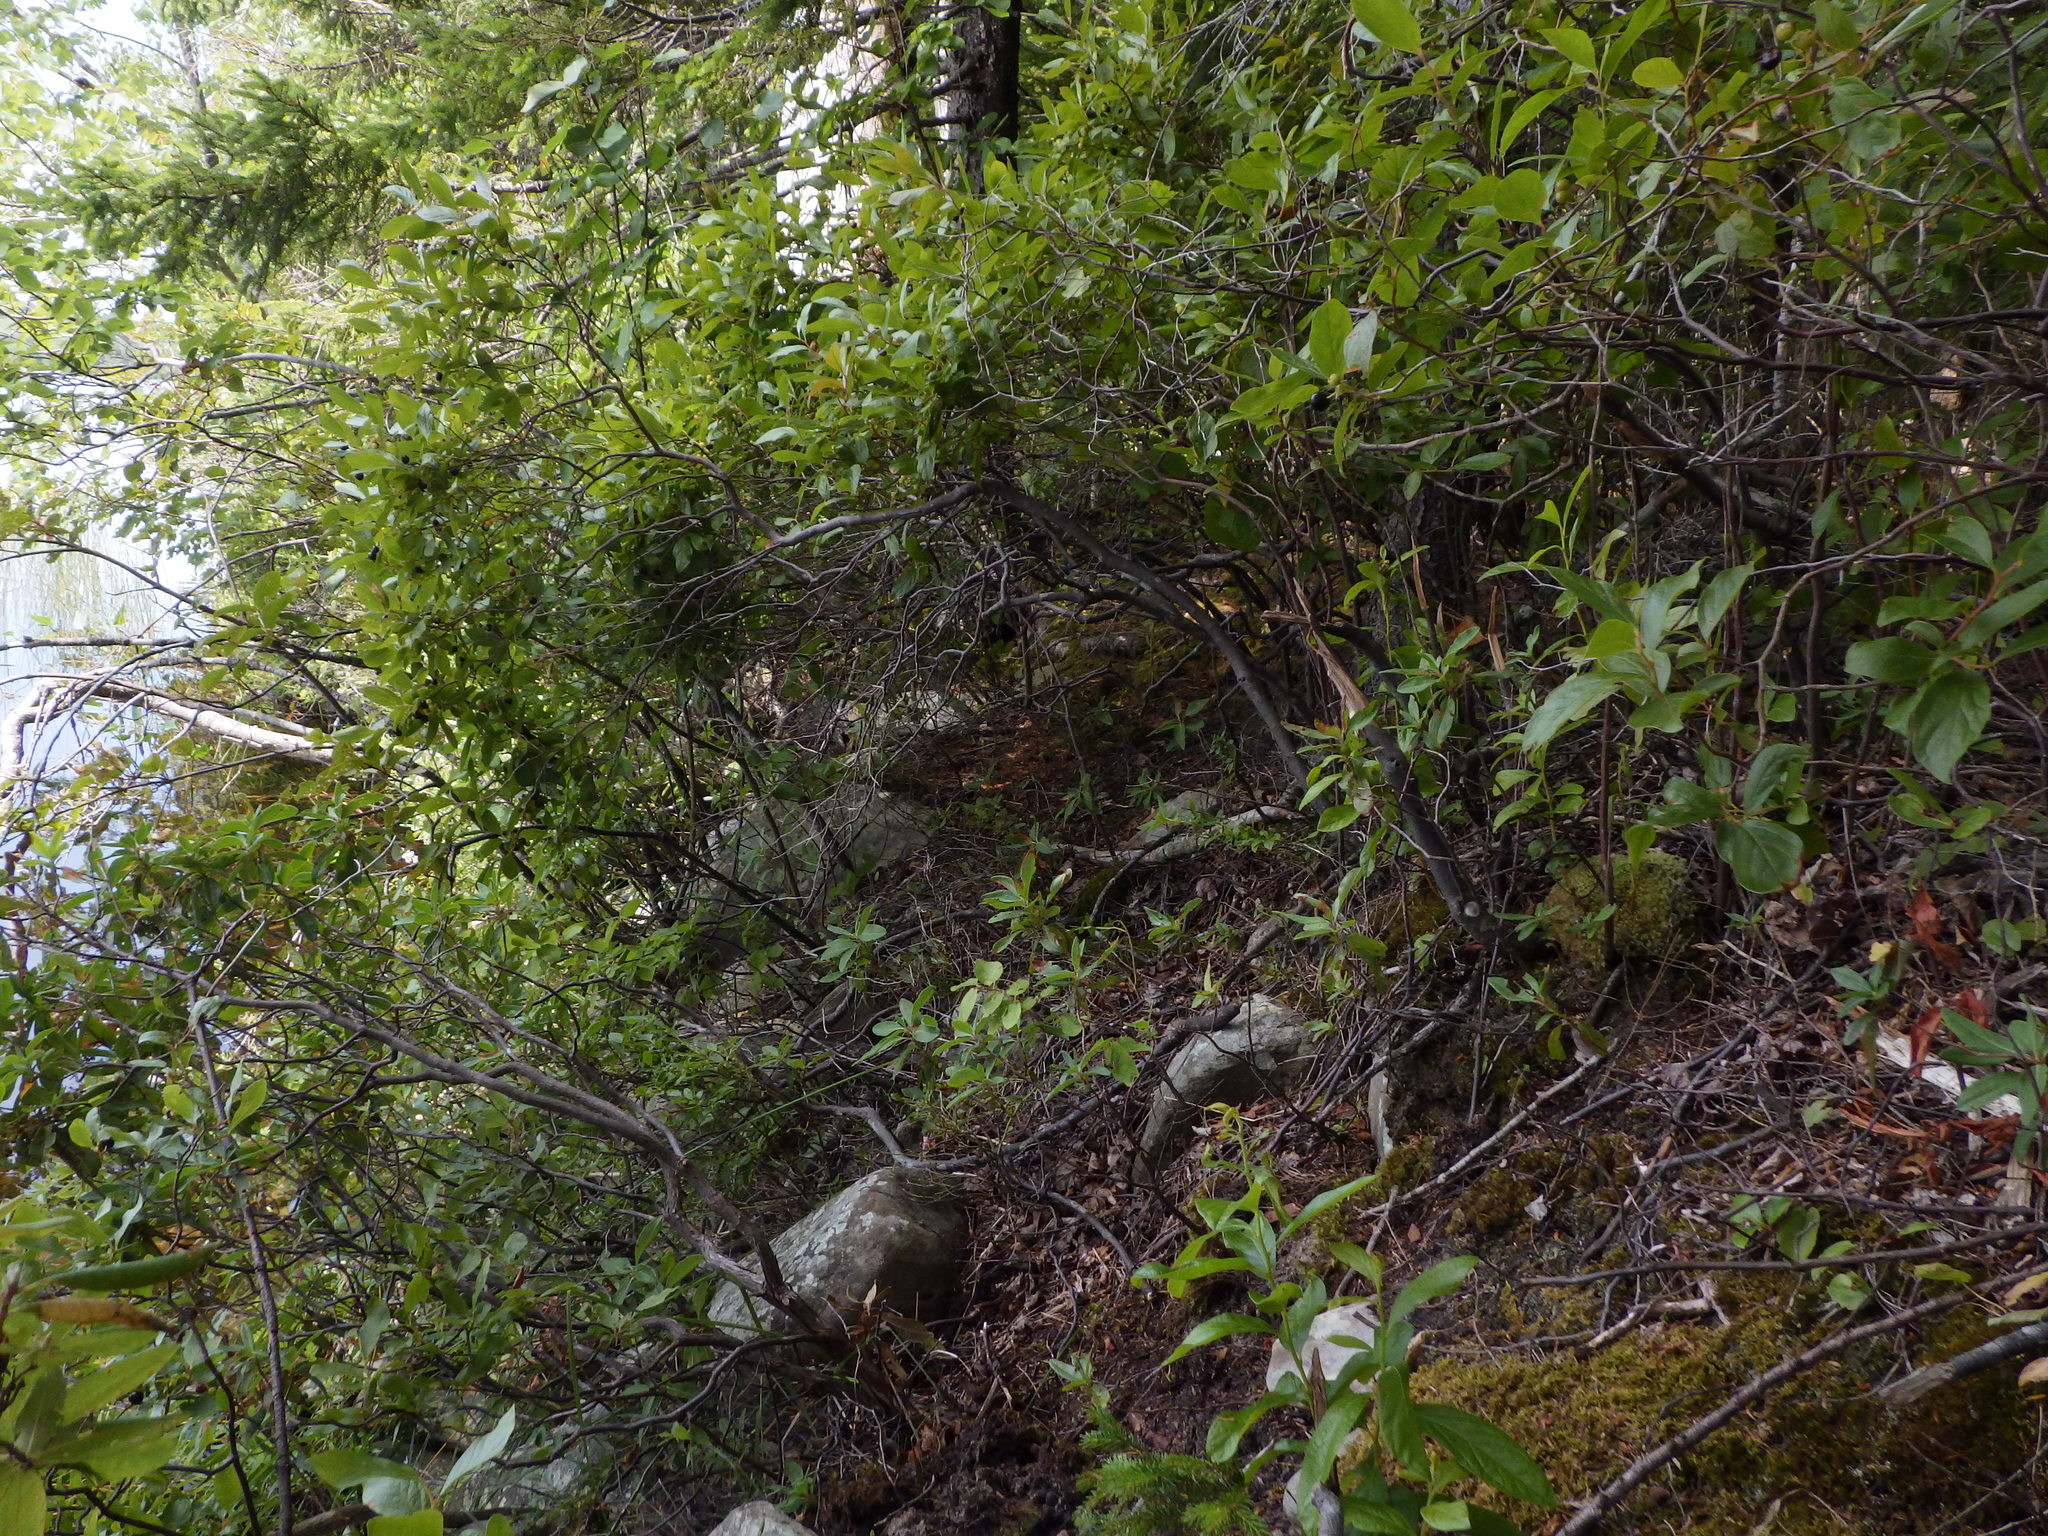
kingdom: Plantae
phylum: Tracheophyta
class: Magnoliopsida
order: Ericales
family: Ericaceae
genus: Gaylussacia
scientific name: Gaylussacia baccata
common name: Black huckleberry
